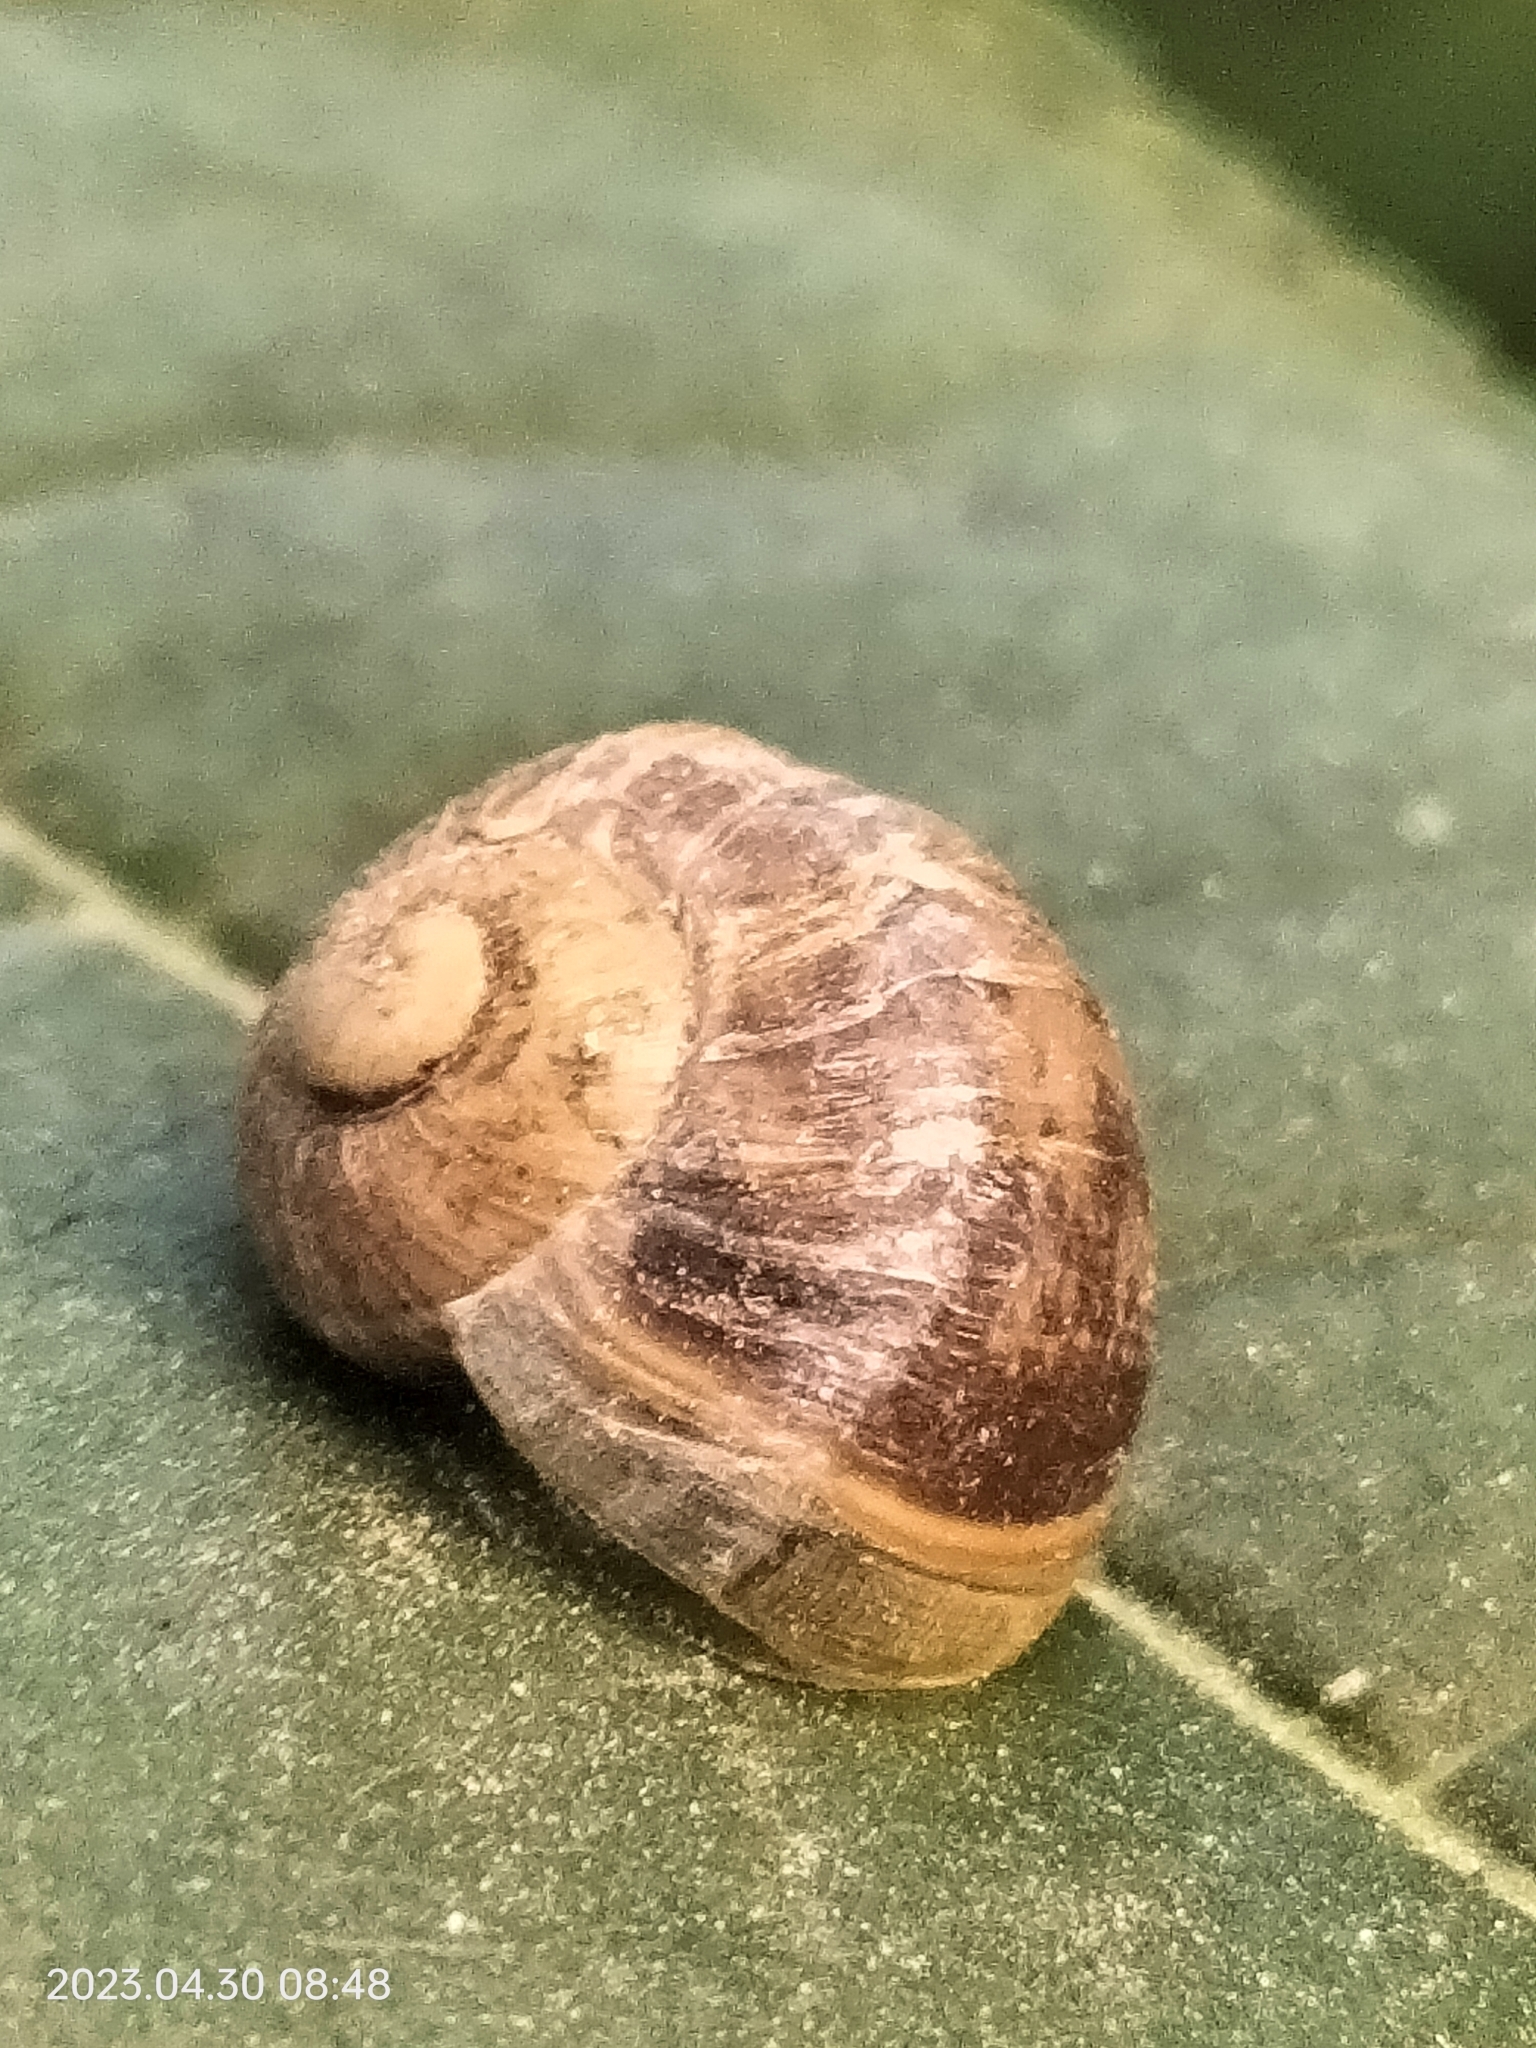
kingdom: Animalia
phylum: Mollusca
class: Gastropoda
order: Stylommatophora
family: Helicidae
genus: Cornu
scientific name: Cornu aspersum
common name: Brown garden snail
